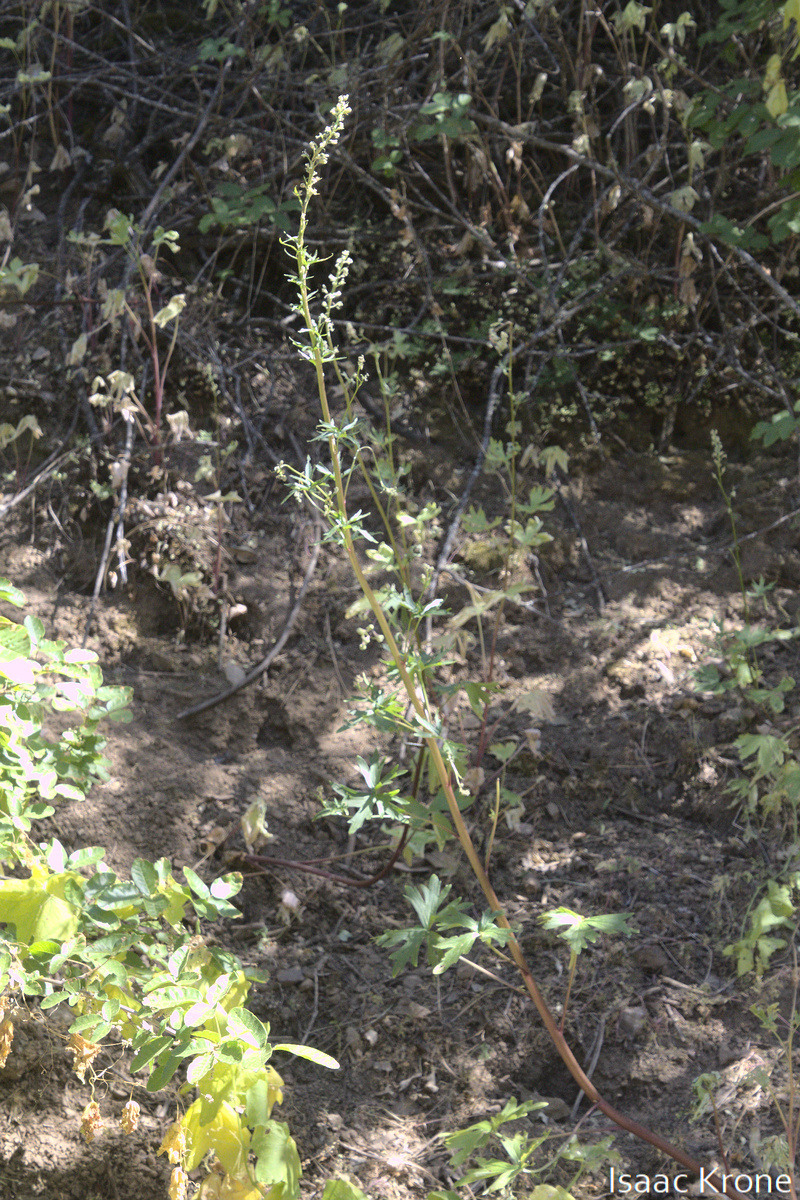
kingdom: Plantae
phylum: Tracheophyta
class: Magnoliopsida
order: Ranunculales
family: Ranunculaceae
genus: Delphinium
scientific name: Delphinium californicum
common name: California larkspur
